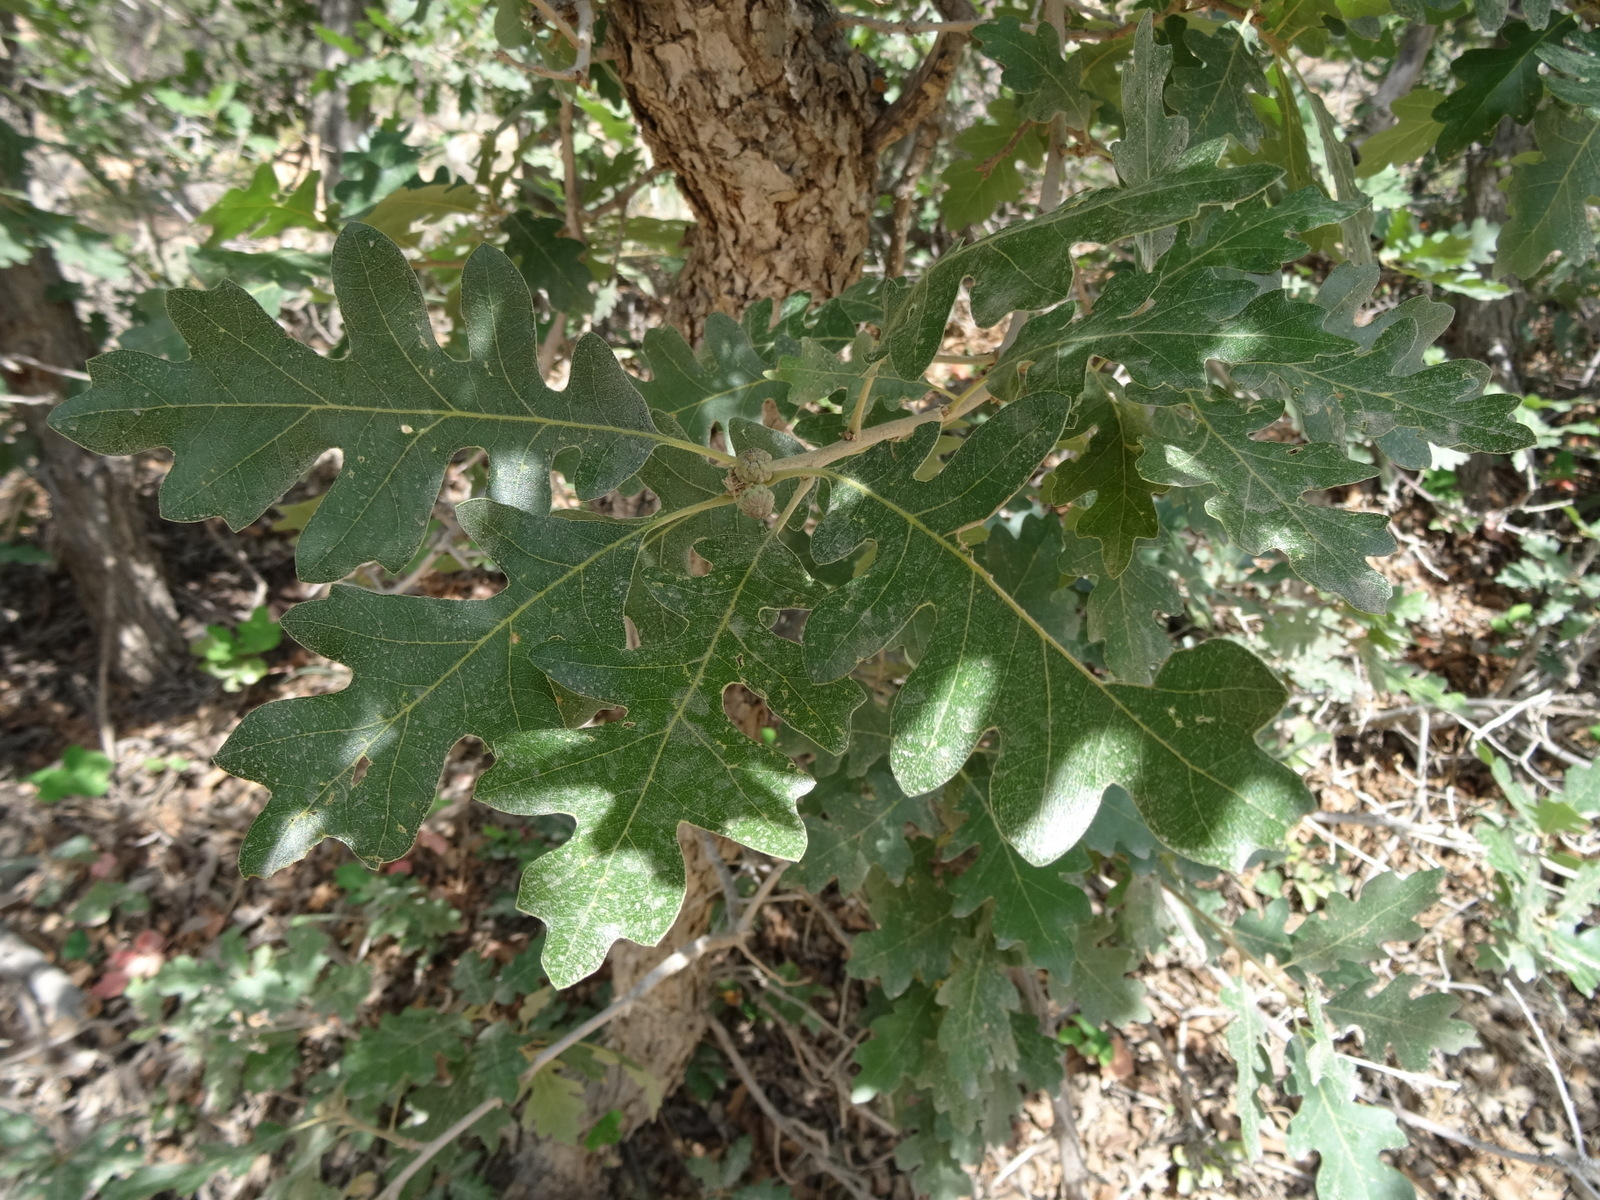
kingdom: Plantae
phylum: Tracheophyta
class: Magnoliopsida
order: Fagales
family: Fagaceae
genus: Quercus
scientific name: Quercus gambelii
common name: Gambel oak
